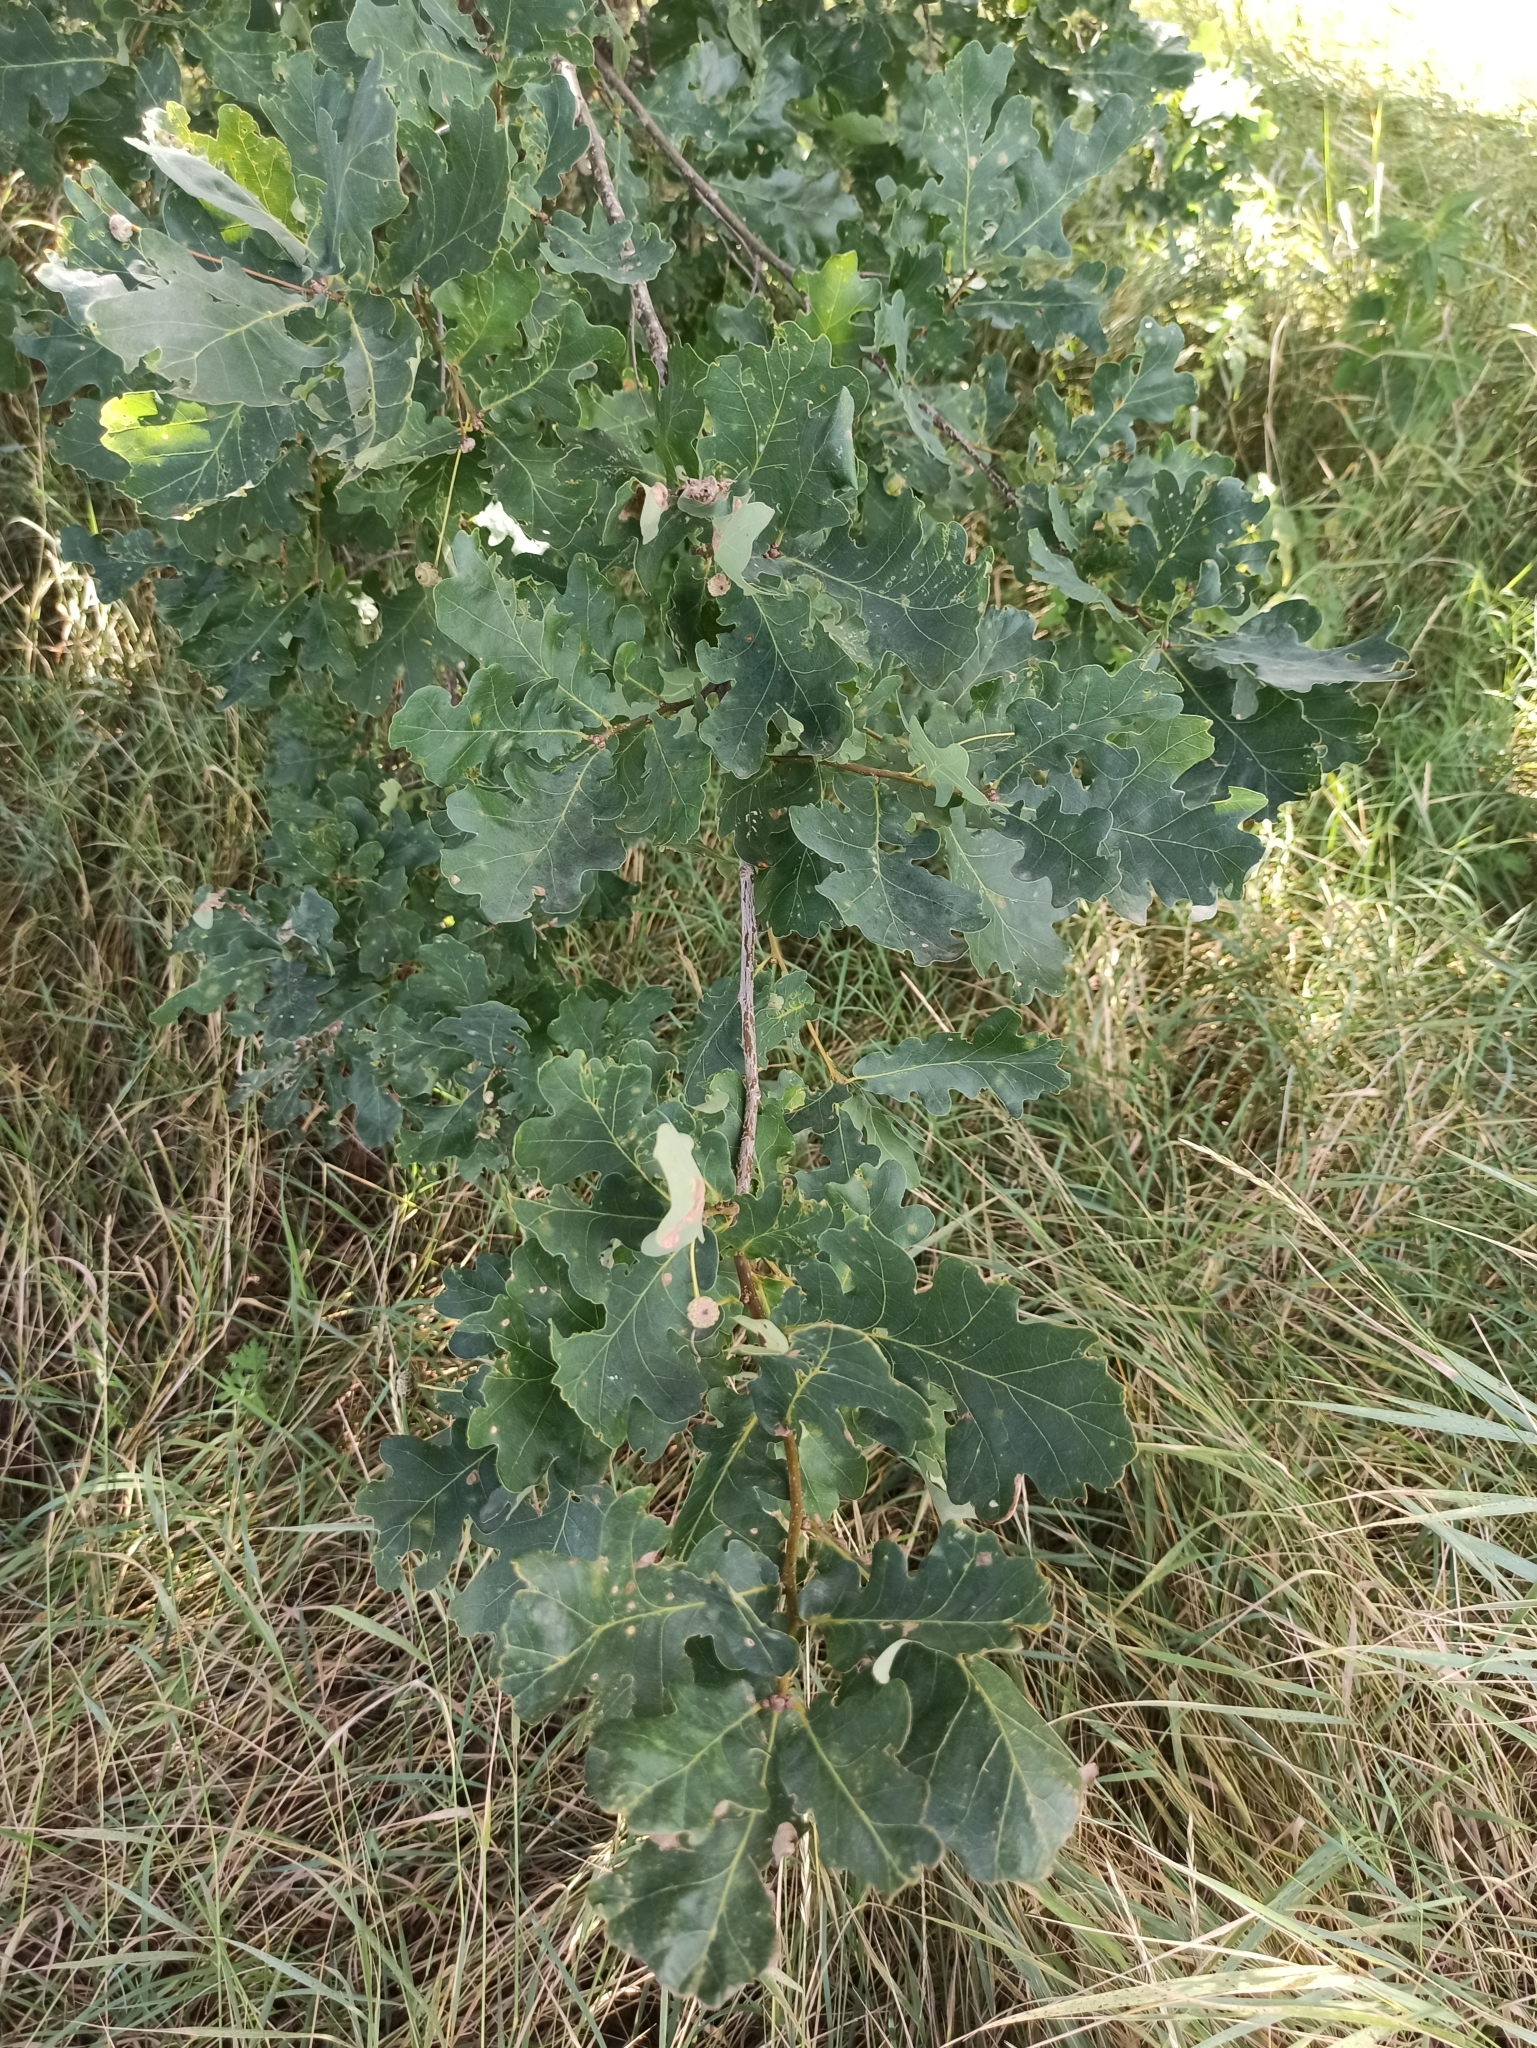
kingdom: Plantae
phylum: Tracheophyta
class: Magnoliopsida
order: Fagales
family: Fagaceae
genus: Quercus
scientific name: Quercus robur
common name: Pedunculate oak
